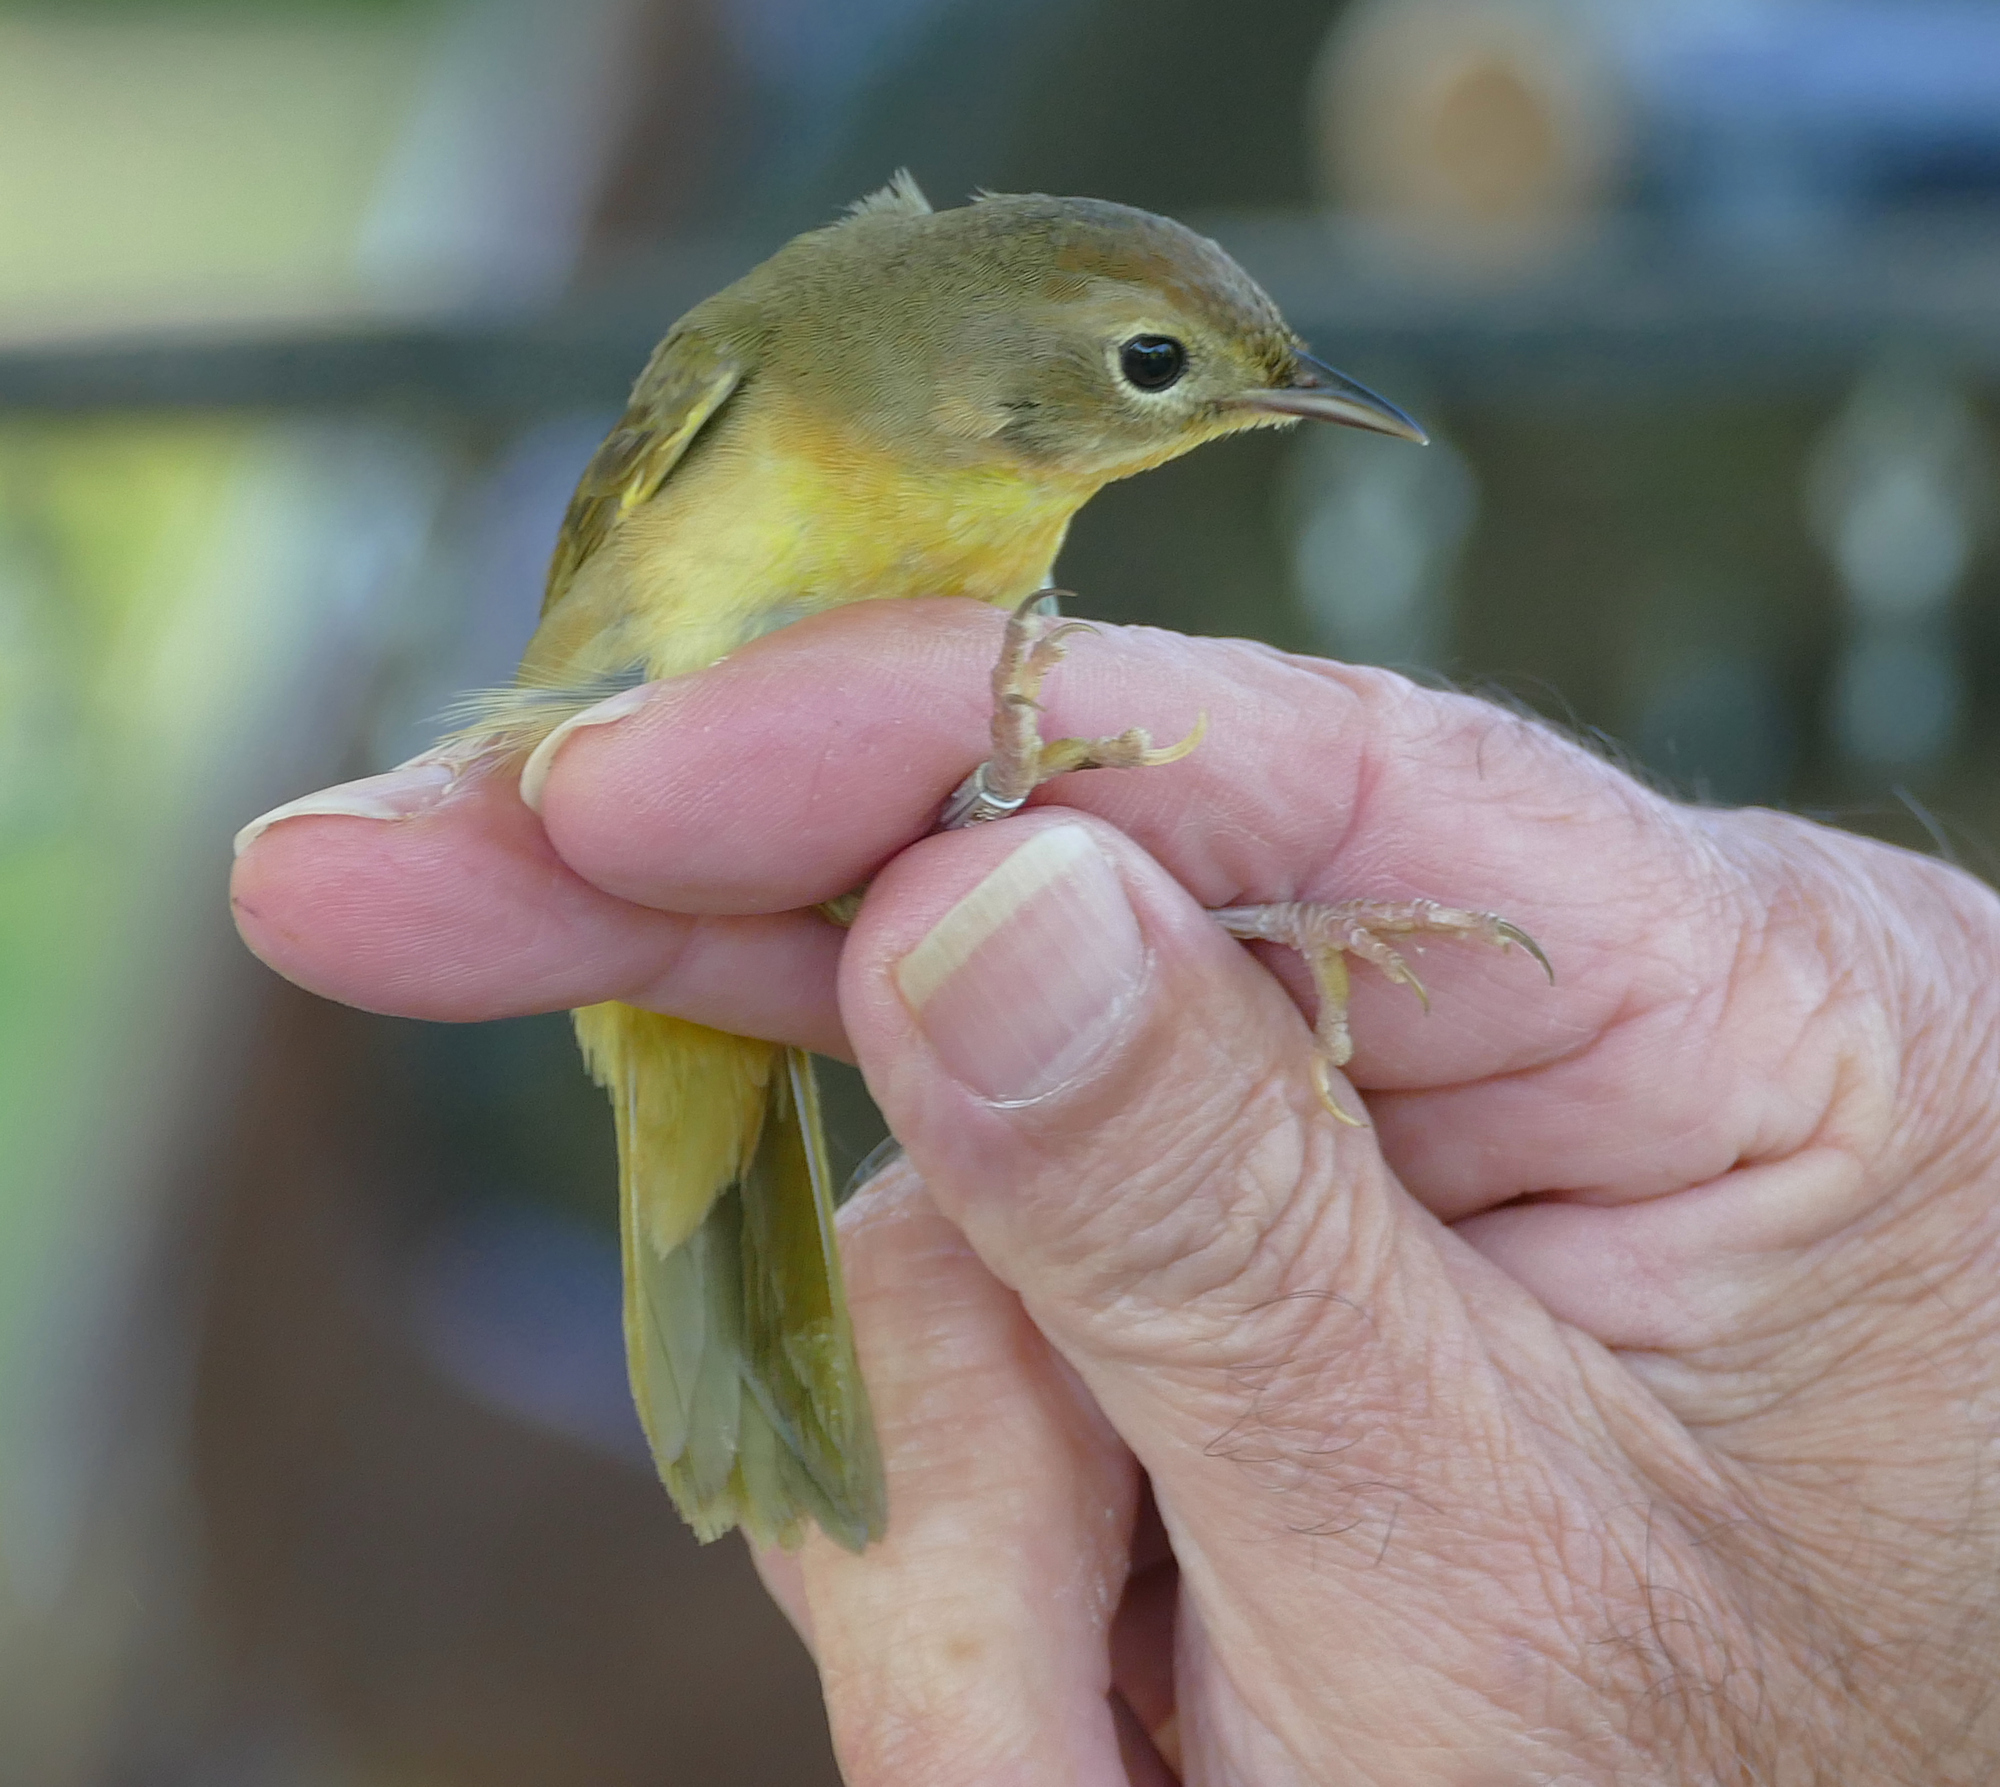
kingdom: Animalia
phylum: Chordata
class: Aves
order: Passeriformes
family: Parulidae
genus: Geothlypis
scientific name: Geothlypis trichas
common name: Common yellowthroat
